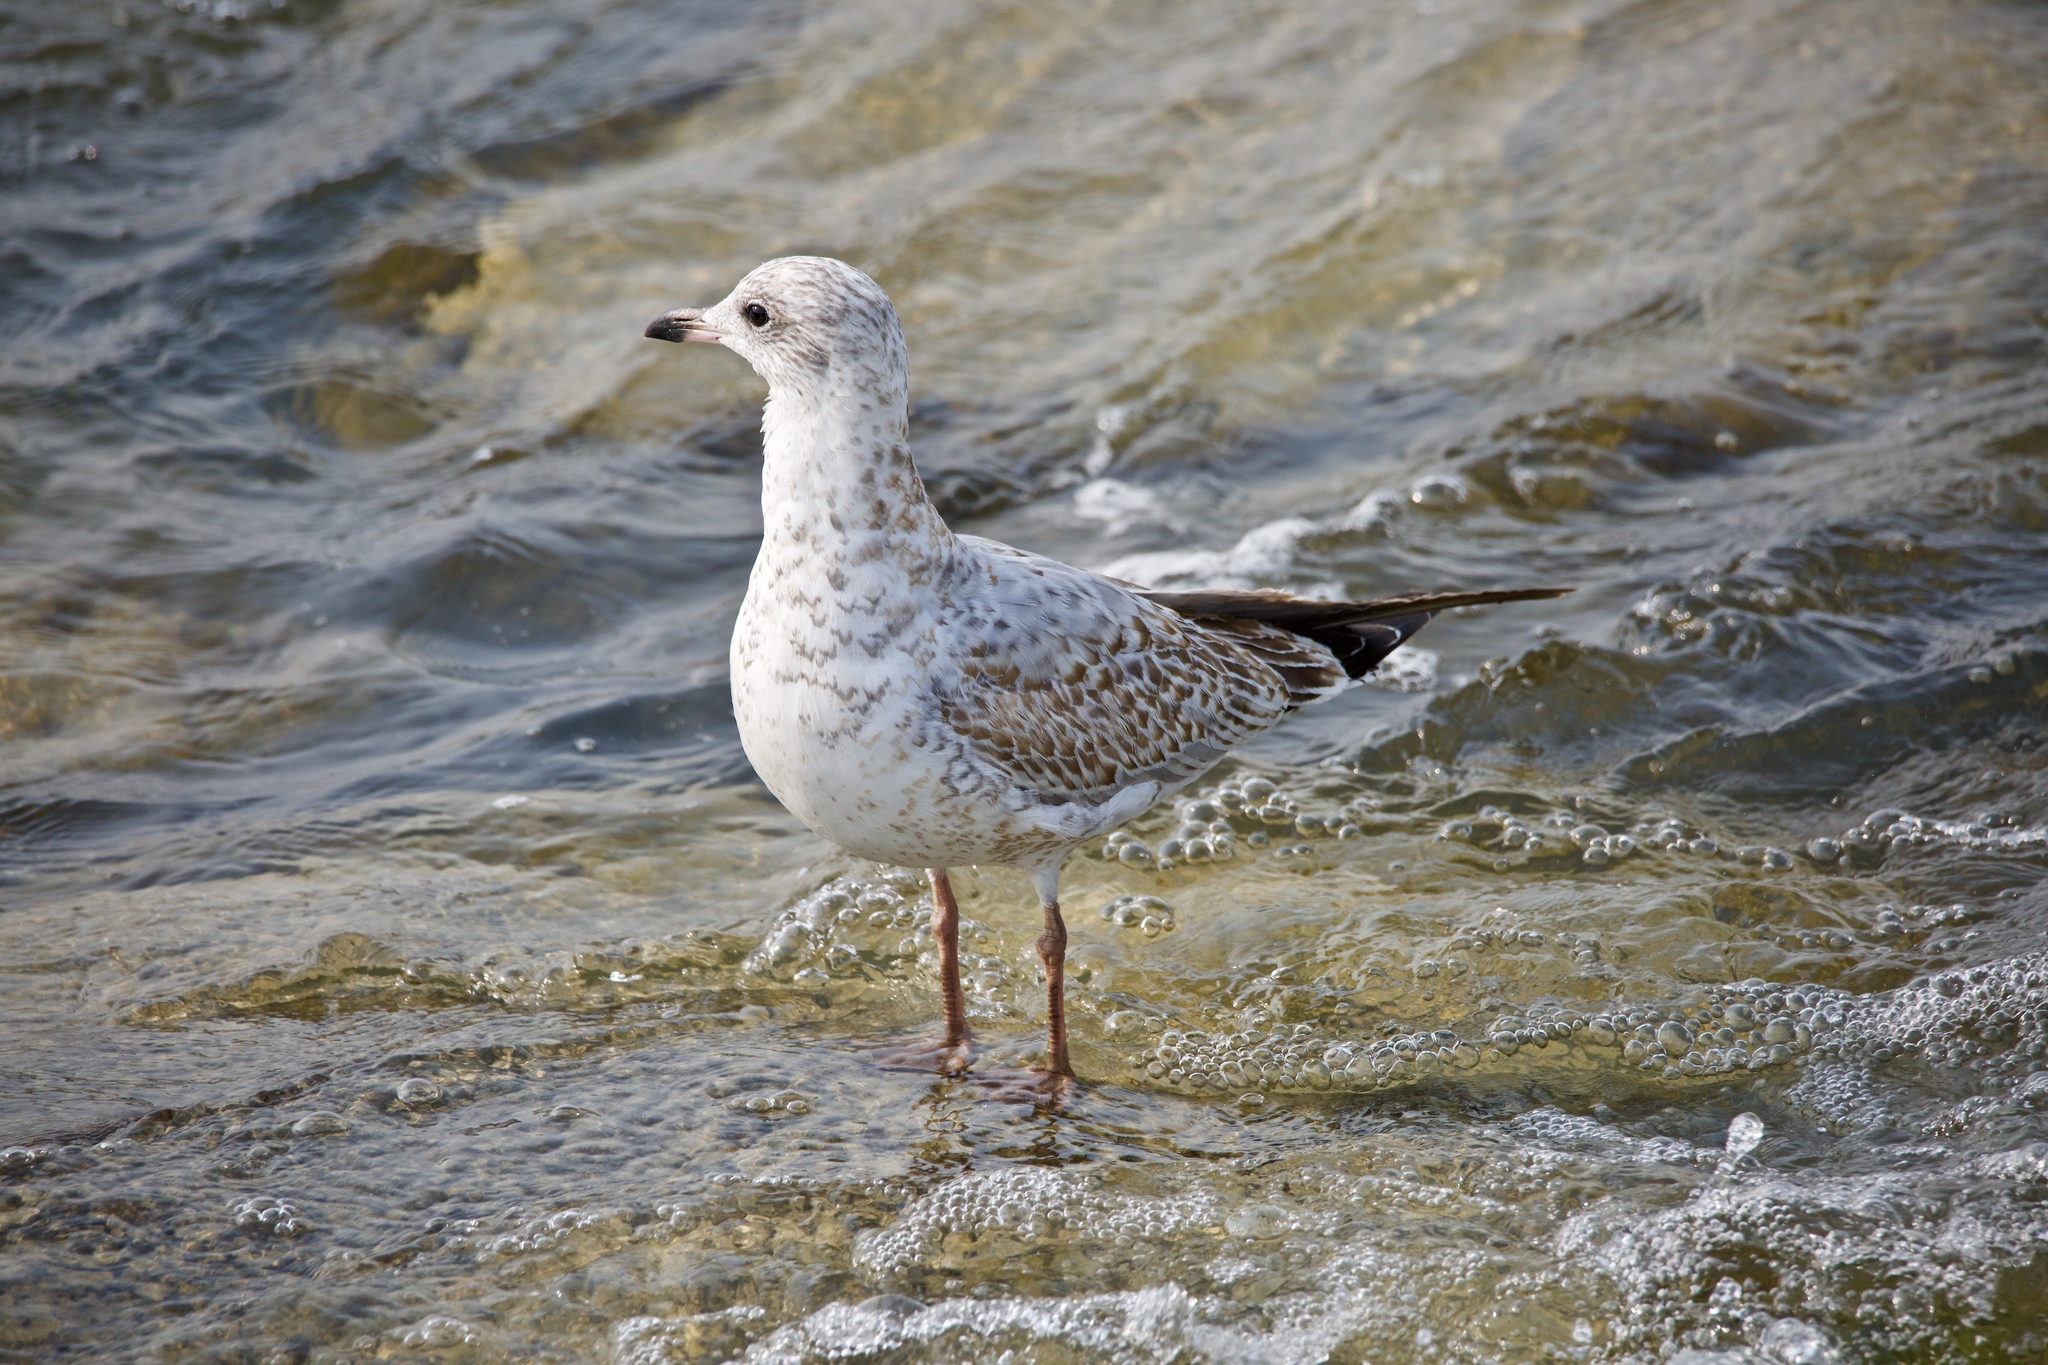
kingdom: Animalia
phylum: Chordata
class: Aves
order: Charadriiformes
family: Laridae
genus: Larus
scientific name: Larus delawarensis
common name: Ring-billed gull
